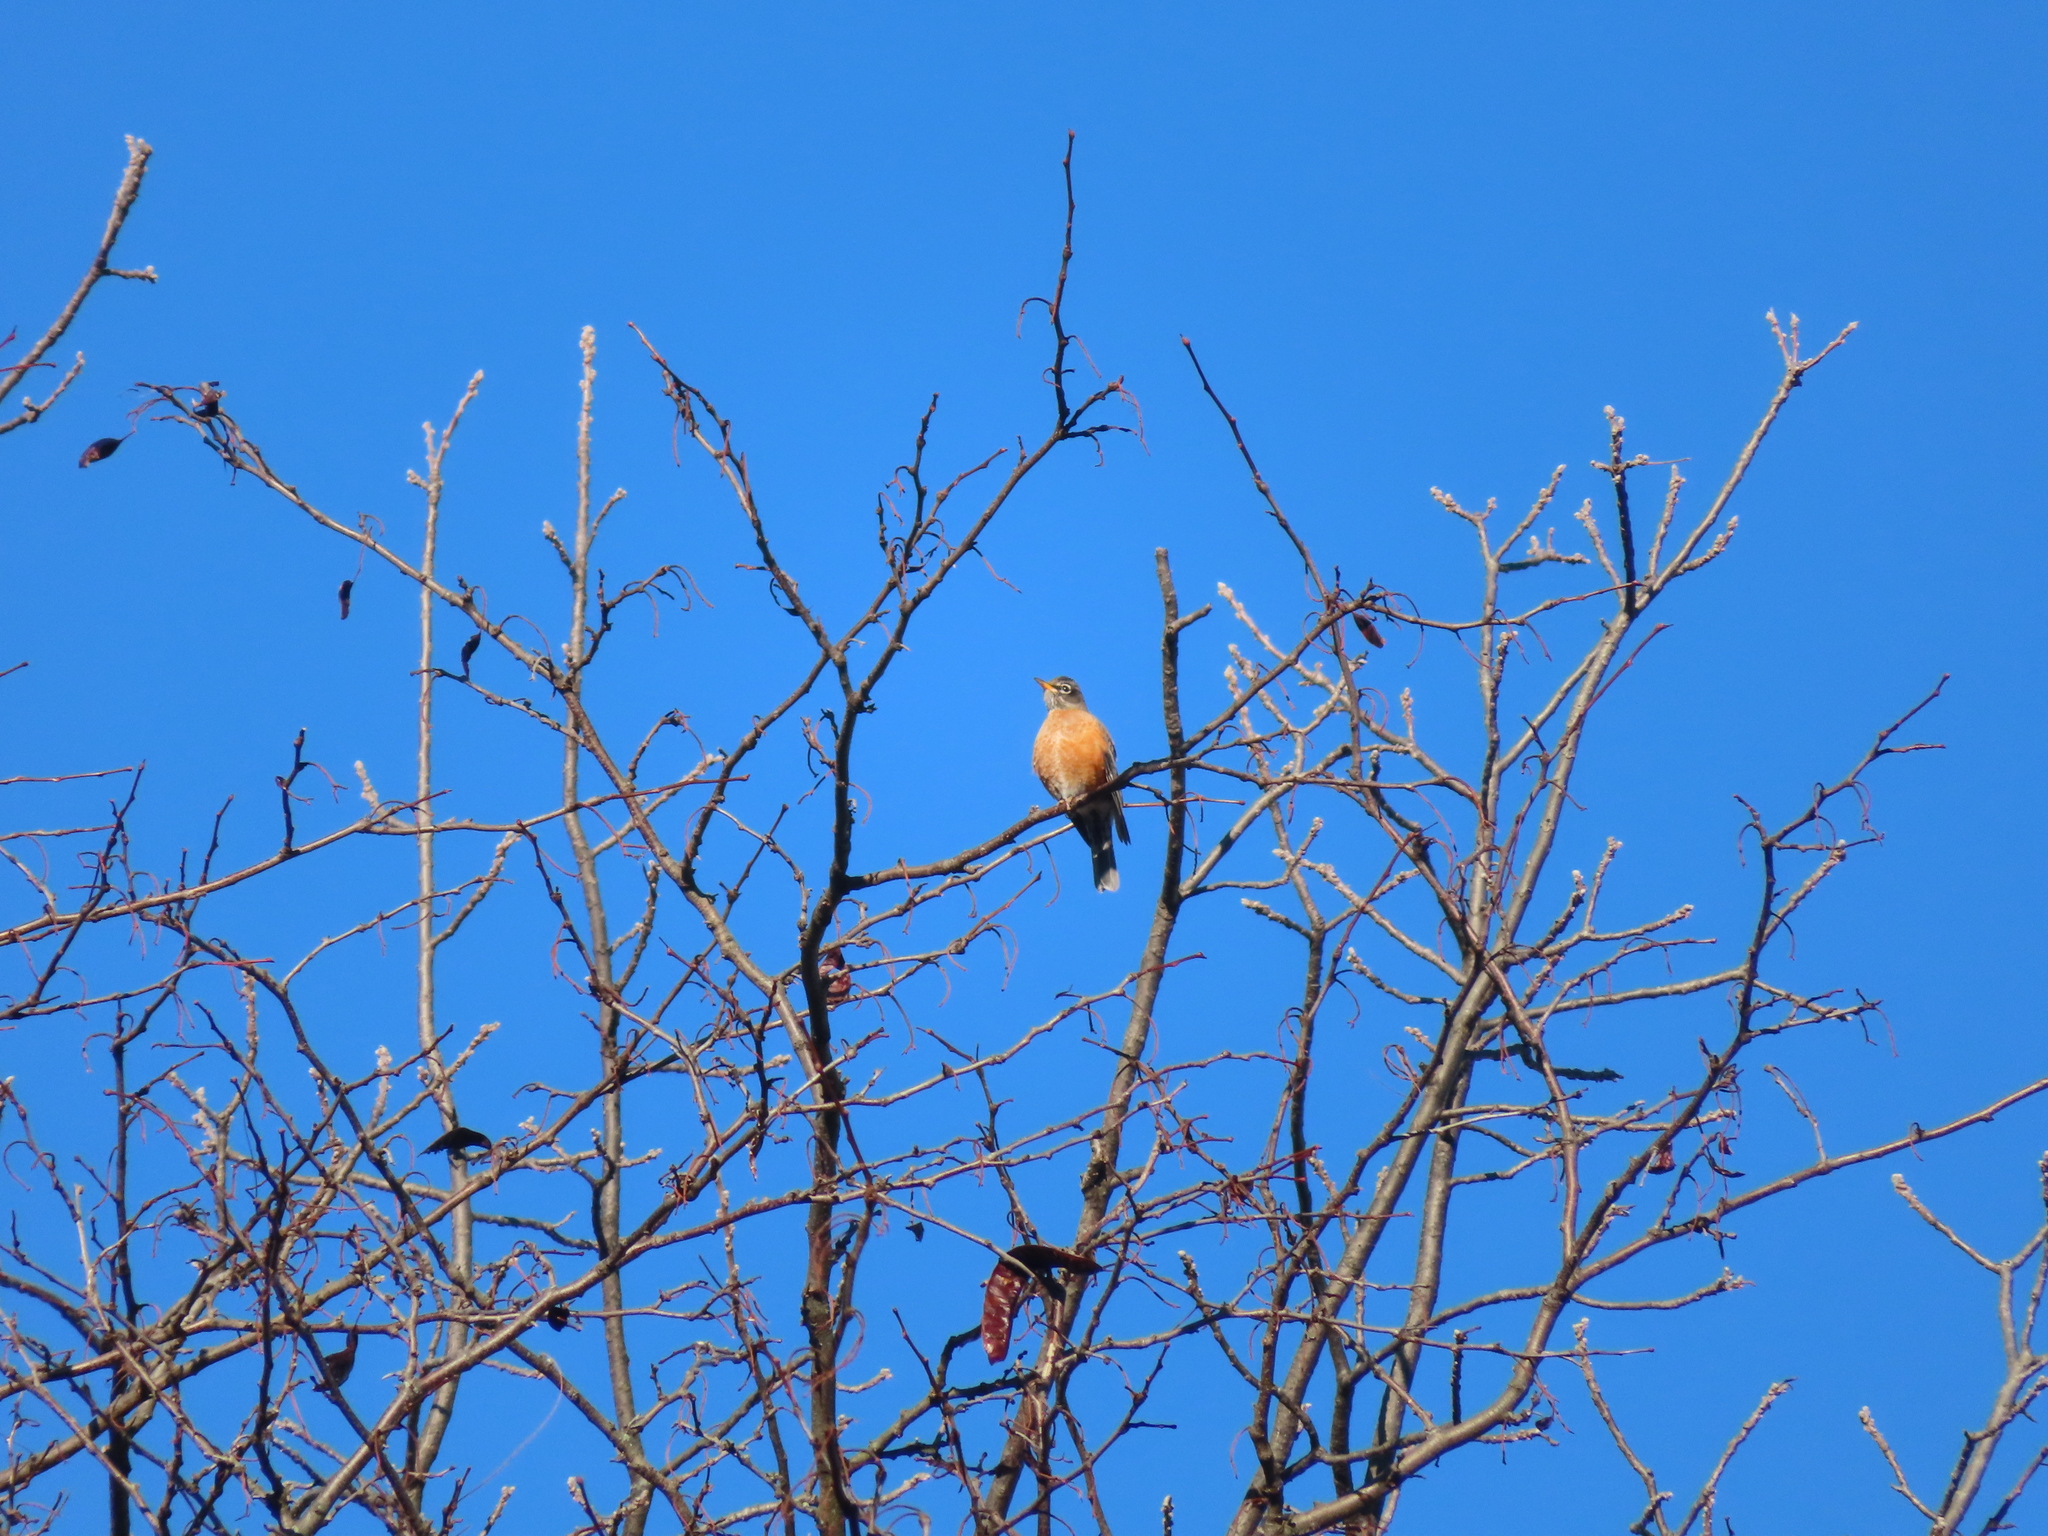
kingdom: Animalia
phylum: Chordata
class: Aves
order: Passeriformes
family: Turdidae
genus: Turdus
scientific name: Turdus migratorius
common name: American robin
